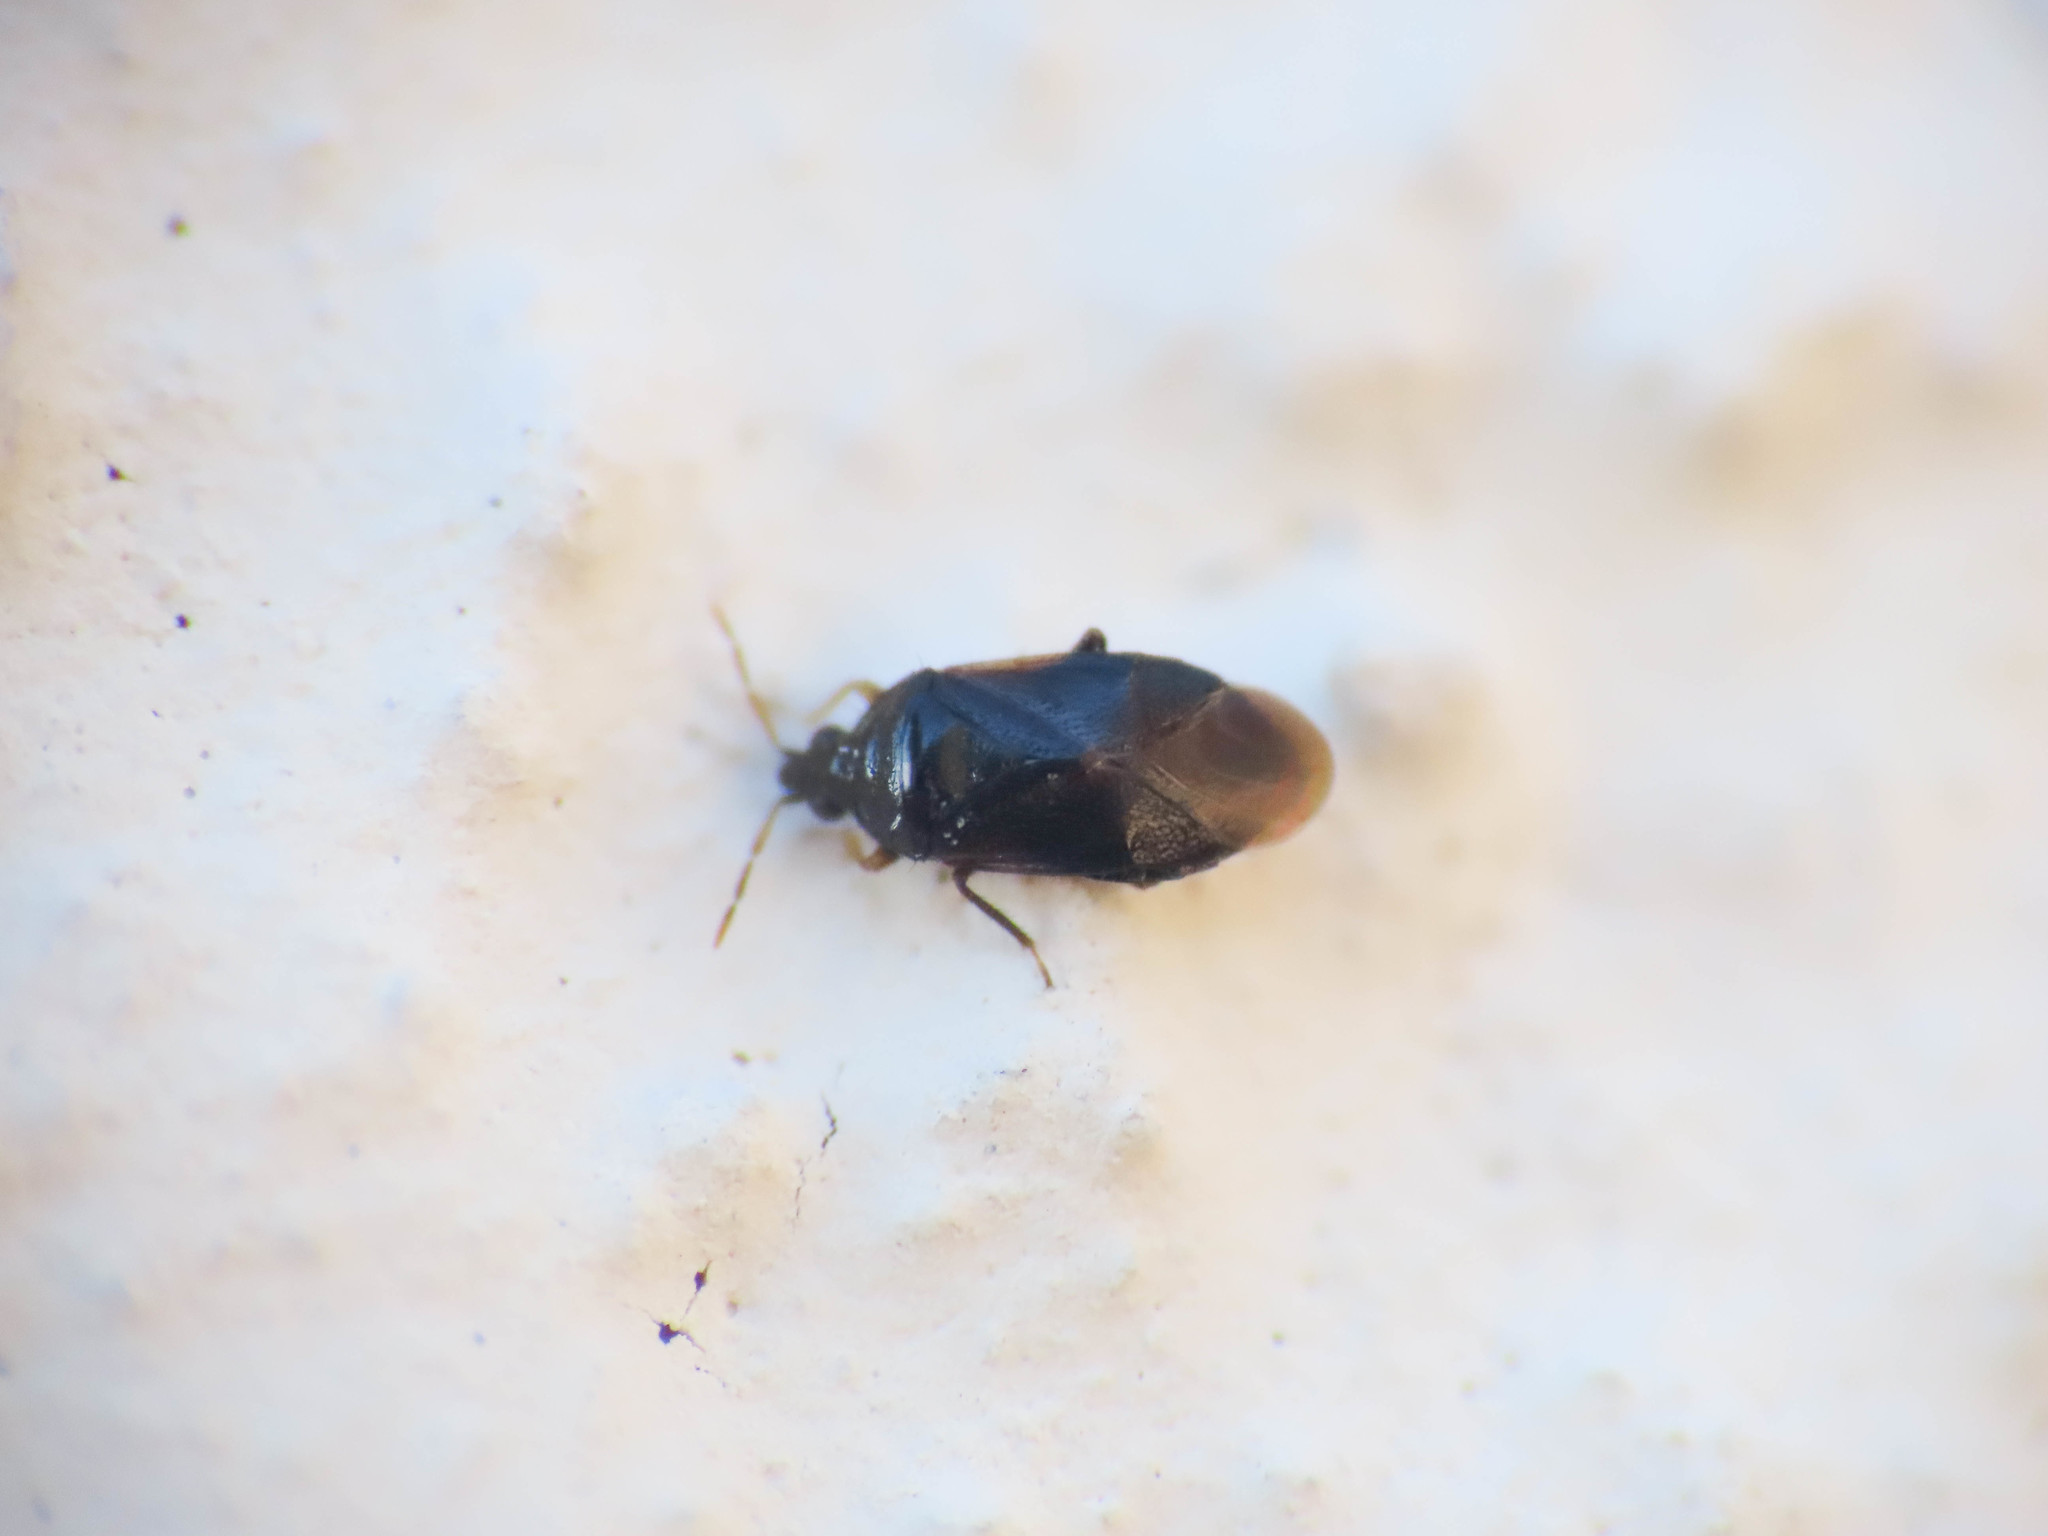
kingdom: Animalia
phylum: Arthropoda
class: Insecta
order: Hemiptera
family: Anthocoridae
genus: Cardiastethus
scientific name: Cardiastethus nazarenus
